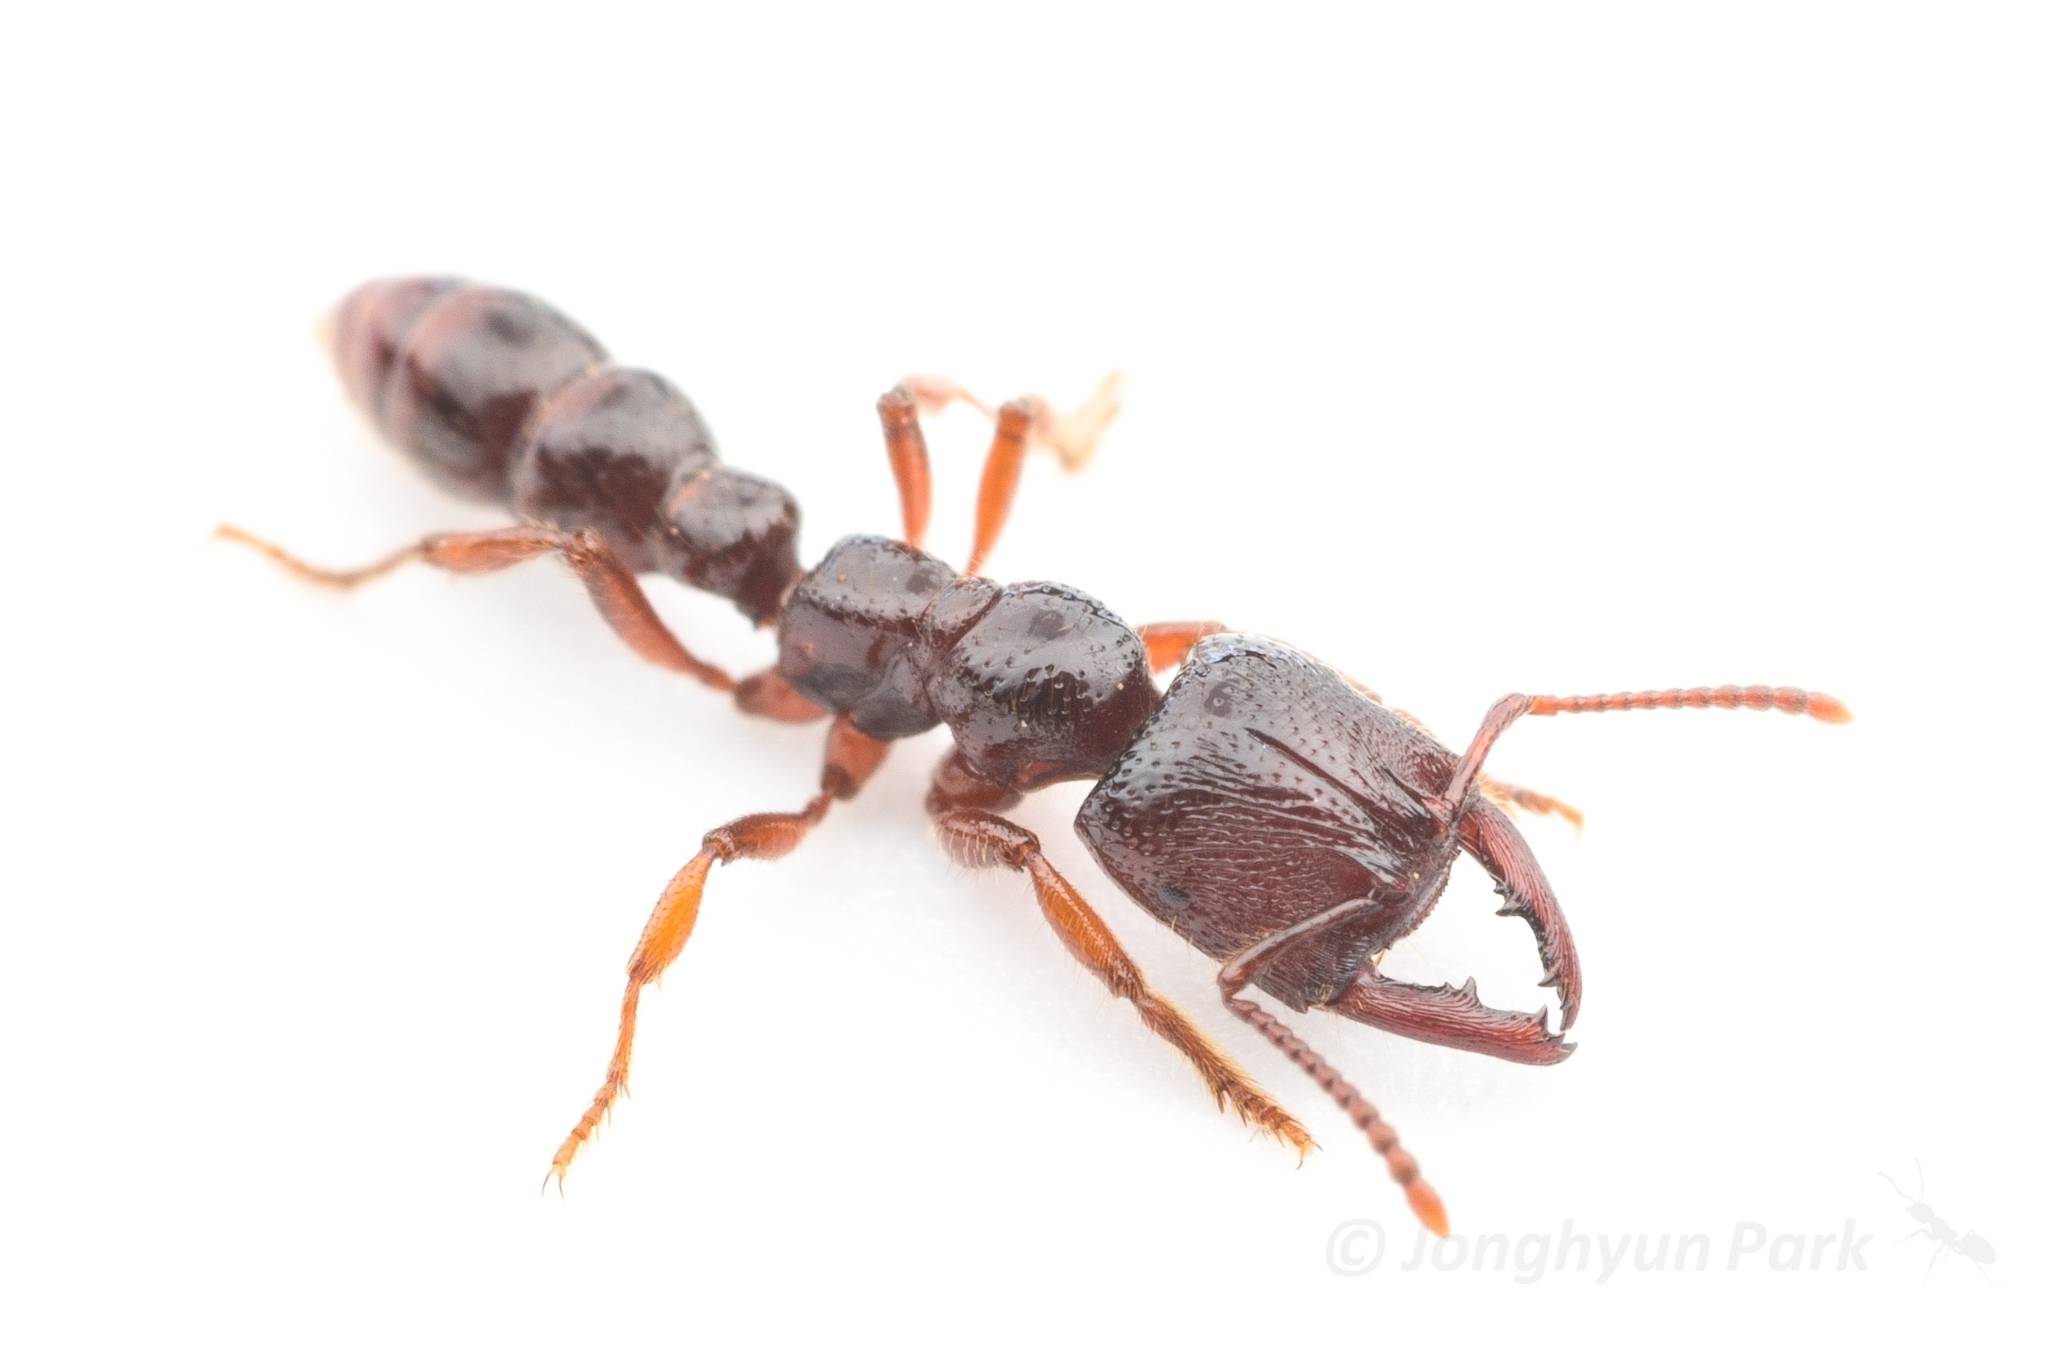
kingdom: Animalia
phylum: Arthropoda
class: Insecta
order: Hymenoptera
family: Formicidae
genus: Amblyopone
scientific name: Amblyopone australis
